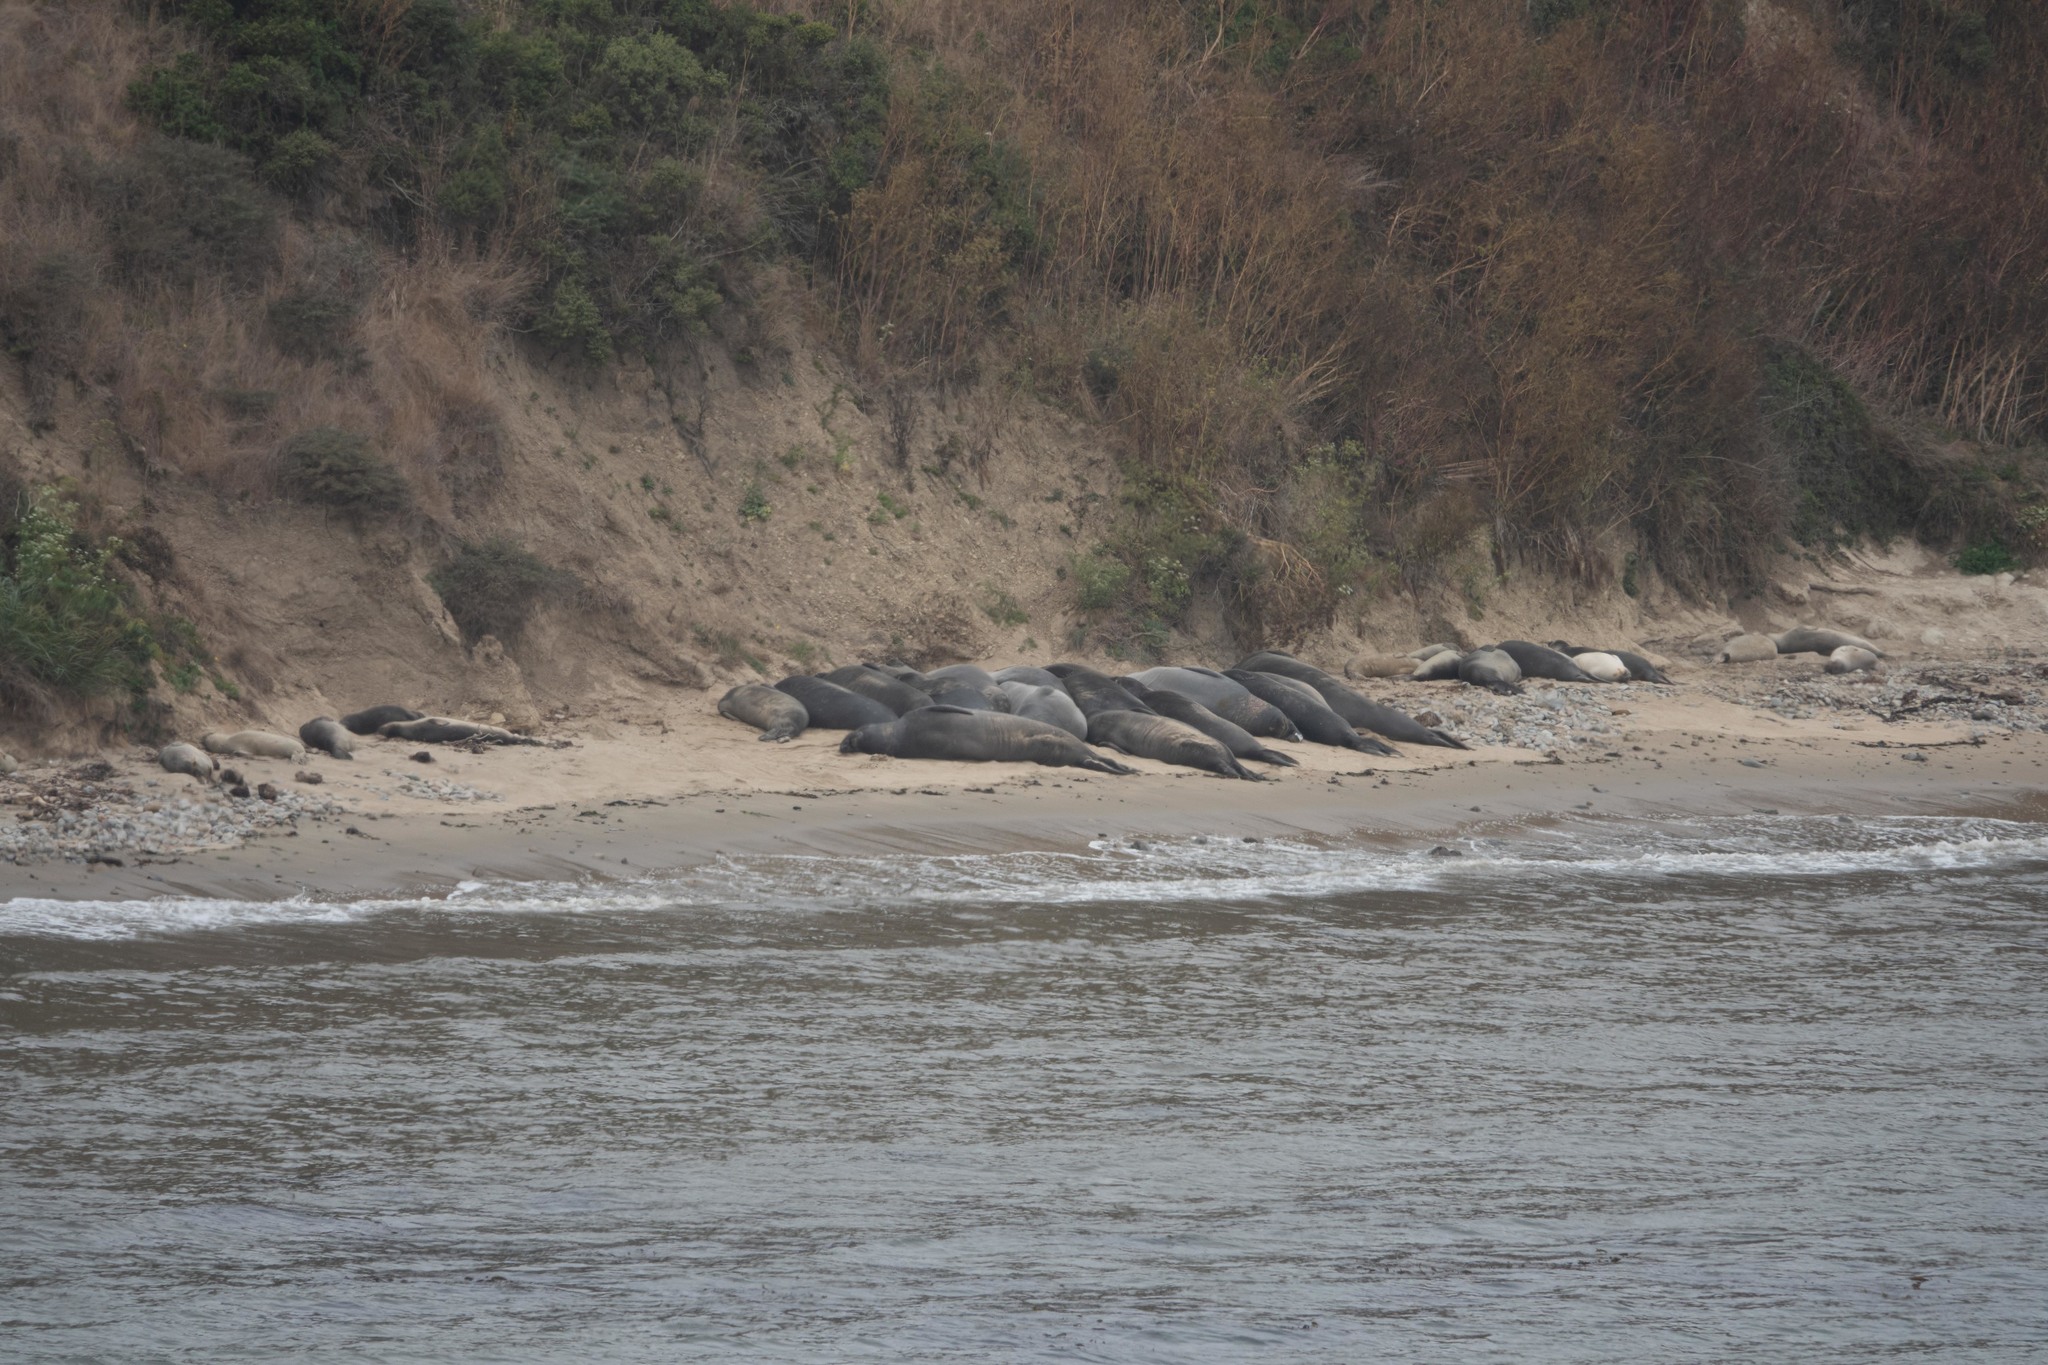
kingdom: Animalia
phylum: Chordata
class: Mammalia
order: Carnivora
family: Phocidae
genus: Mirounga
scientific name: Mirounga angustirostris
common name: Northern elephant seal
